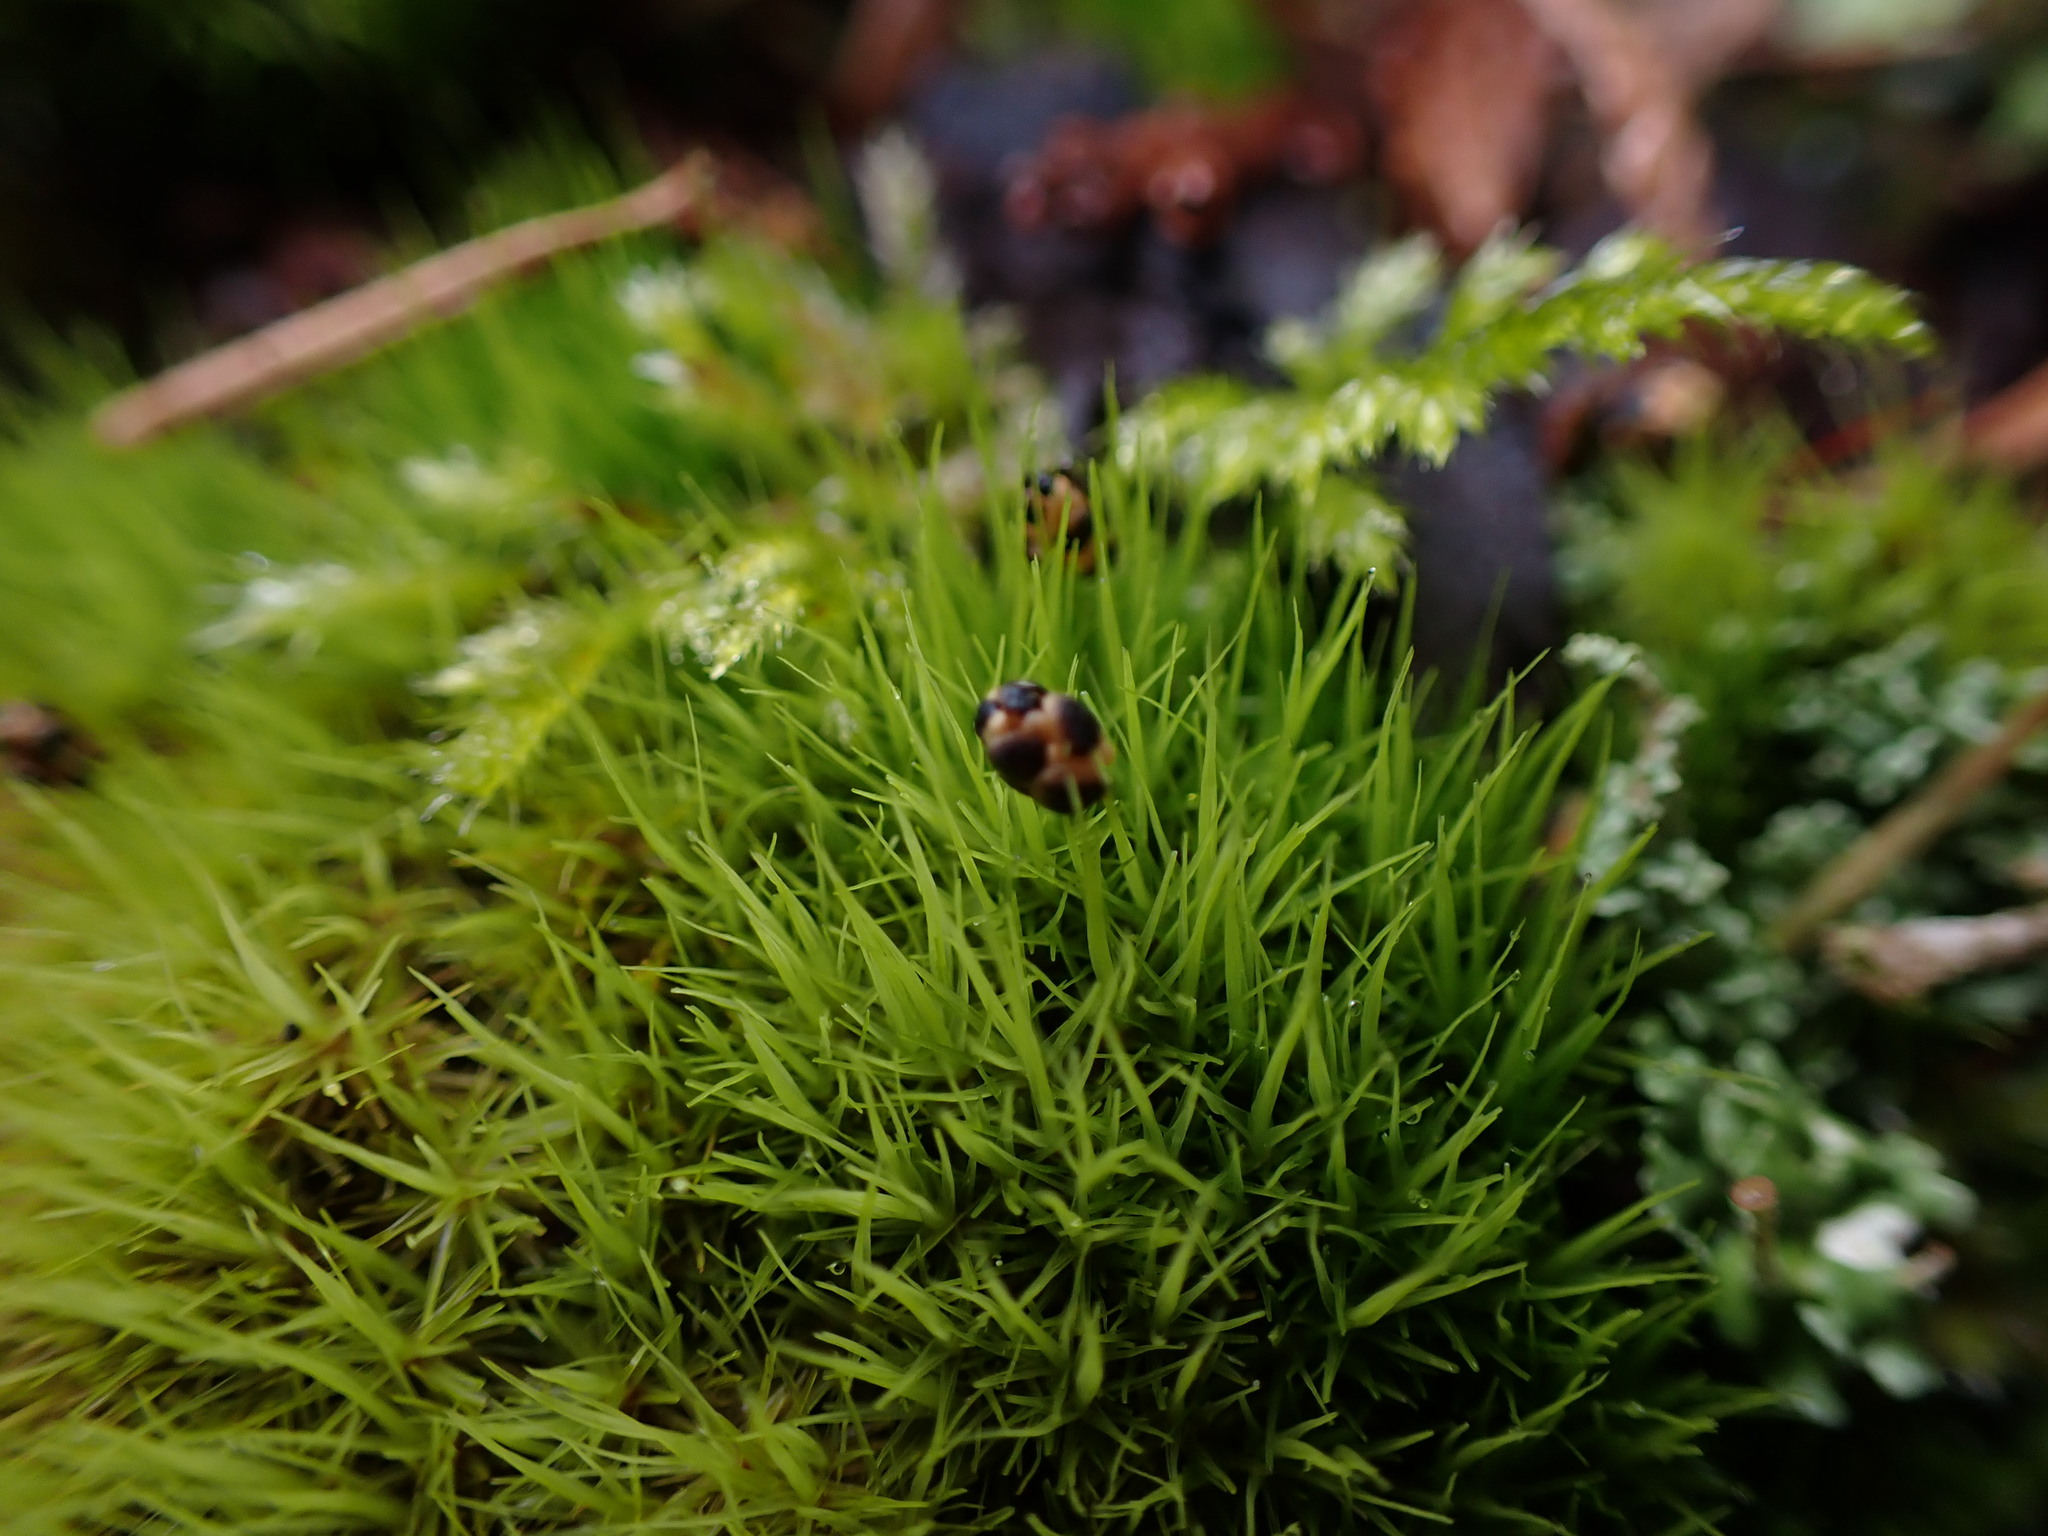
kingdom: Plantae
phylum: Tracheophyta
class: Pinopsida
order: Pinales
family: Cupressaceae
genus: Thuja
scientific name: Thuja plicata
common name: Western red-cedar
